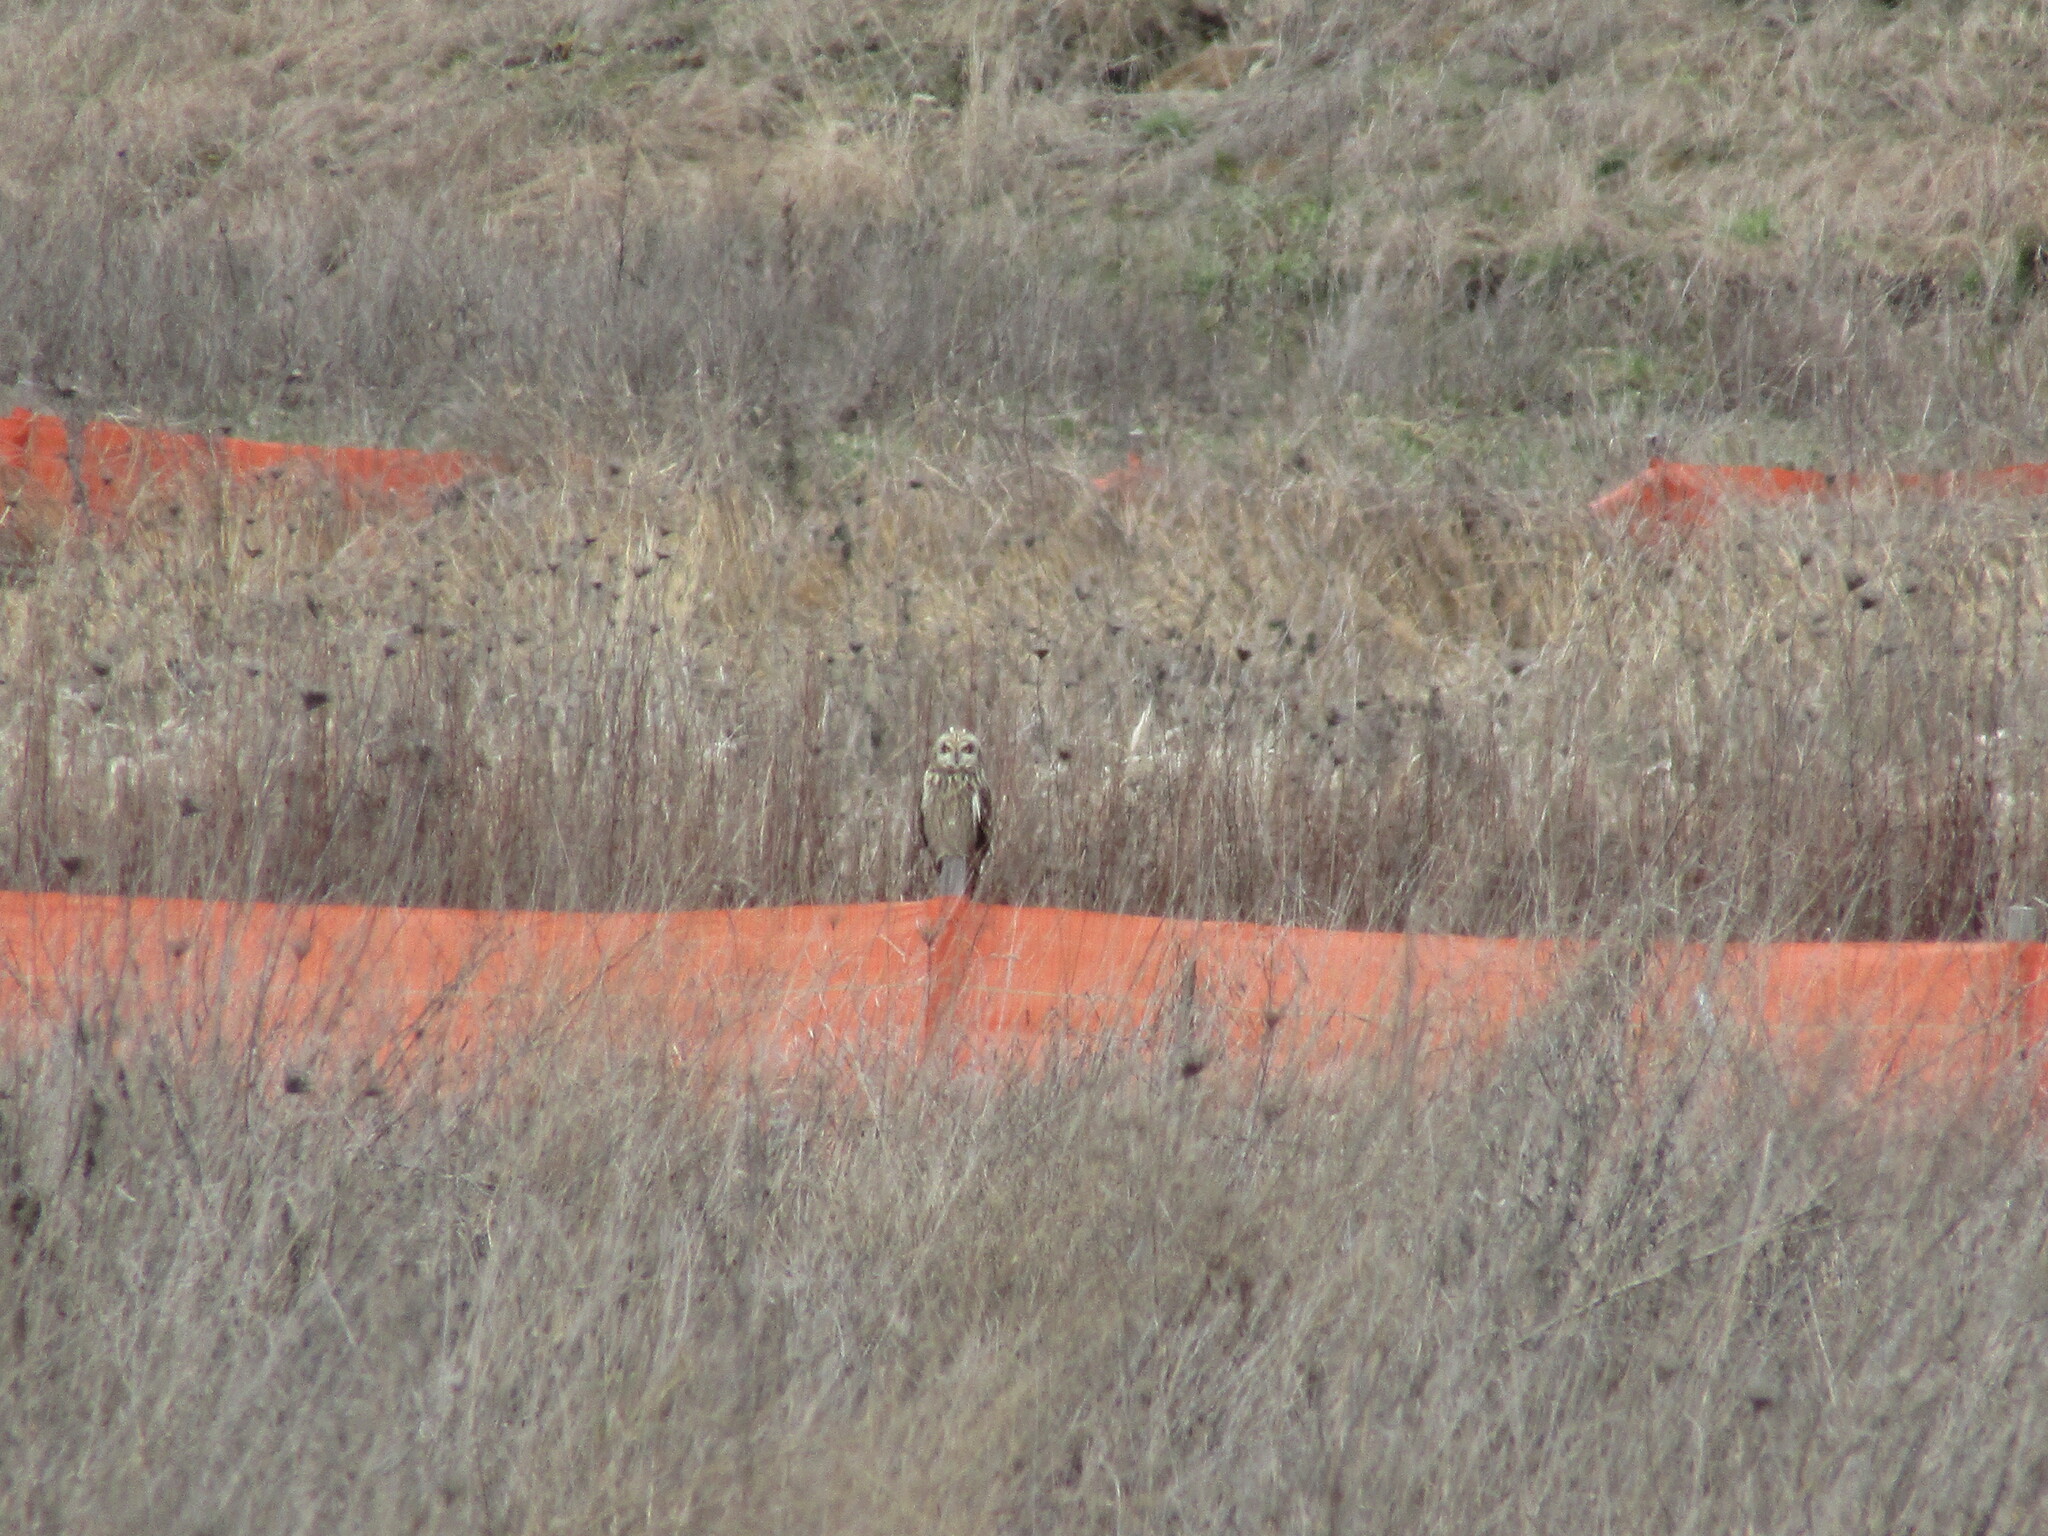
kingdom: Animalia
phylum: Chordata
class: Aves
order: Strigiformes
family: Strigidae
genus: Asio
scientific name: Asio flammeus
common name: Short-eared owl
